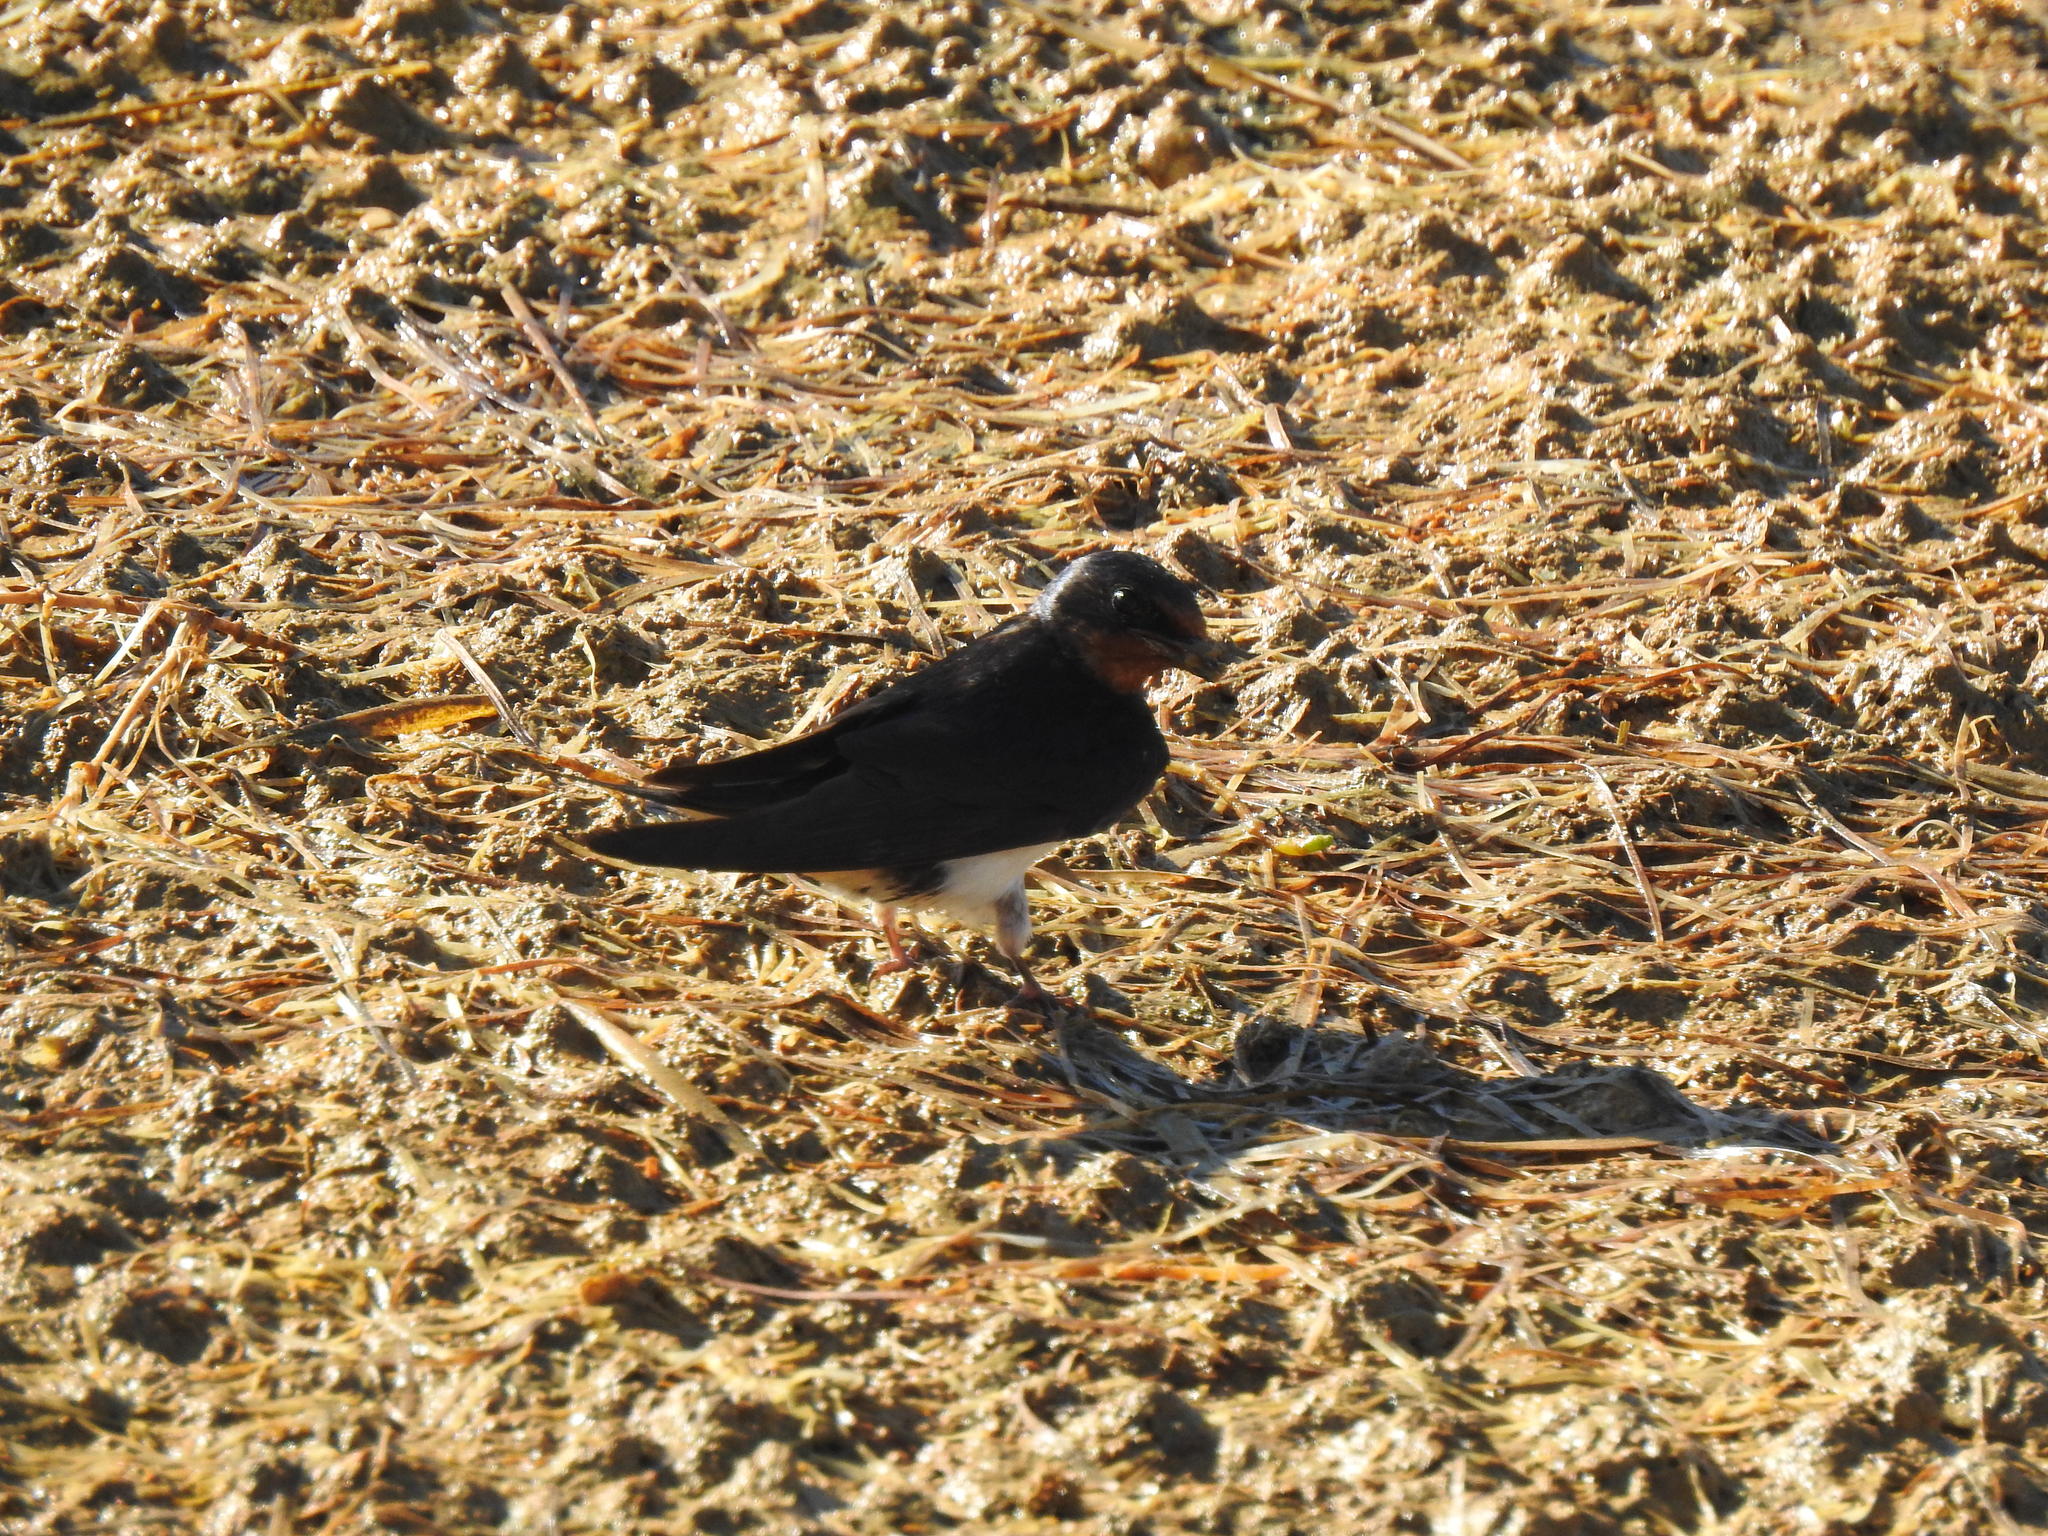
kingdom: Animalia
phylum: Chordata
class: Aves
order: Passeriformes
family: Hirundinidae
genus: Hirundo
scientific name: Hirundo rustica
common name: Barn swallow
